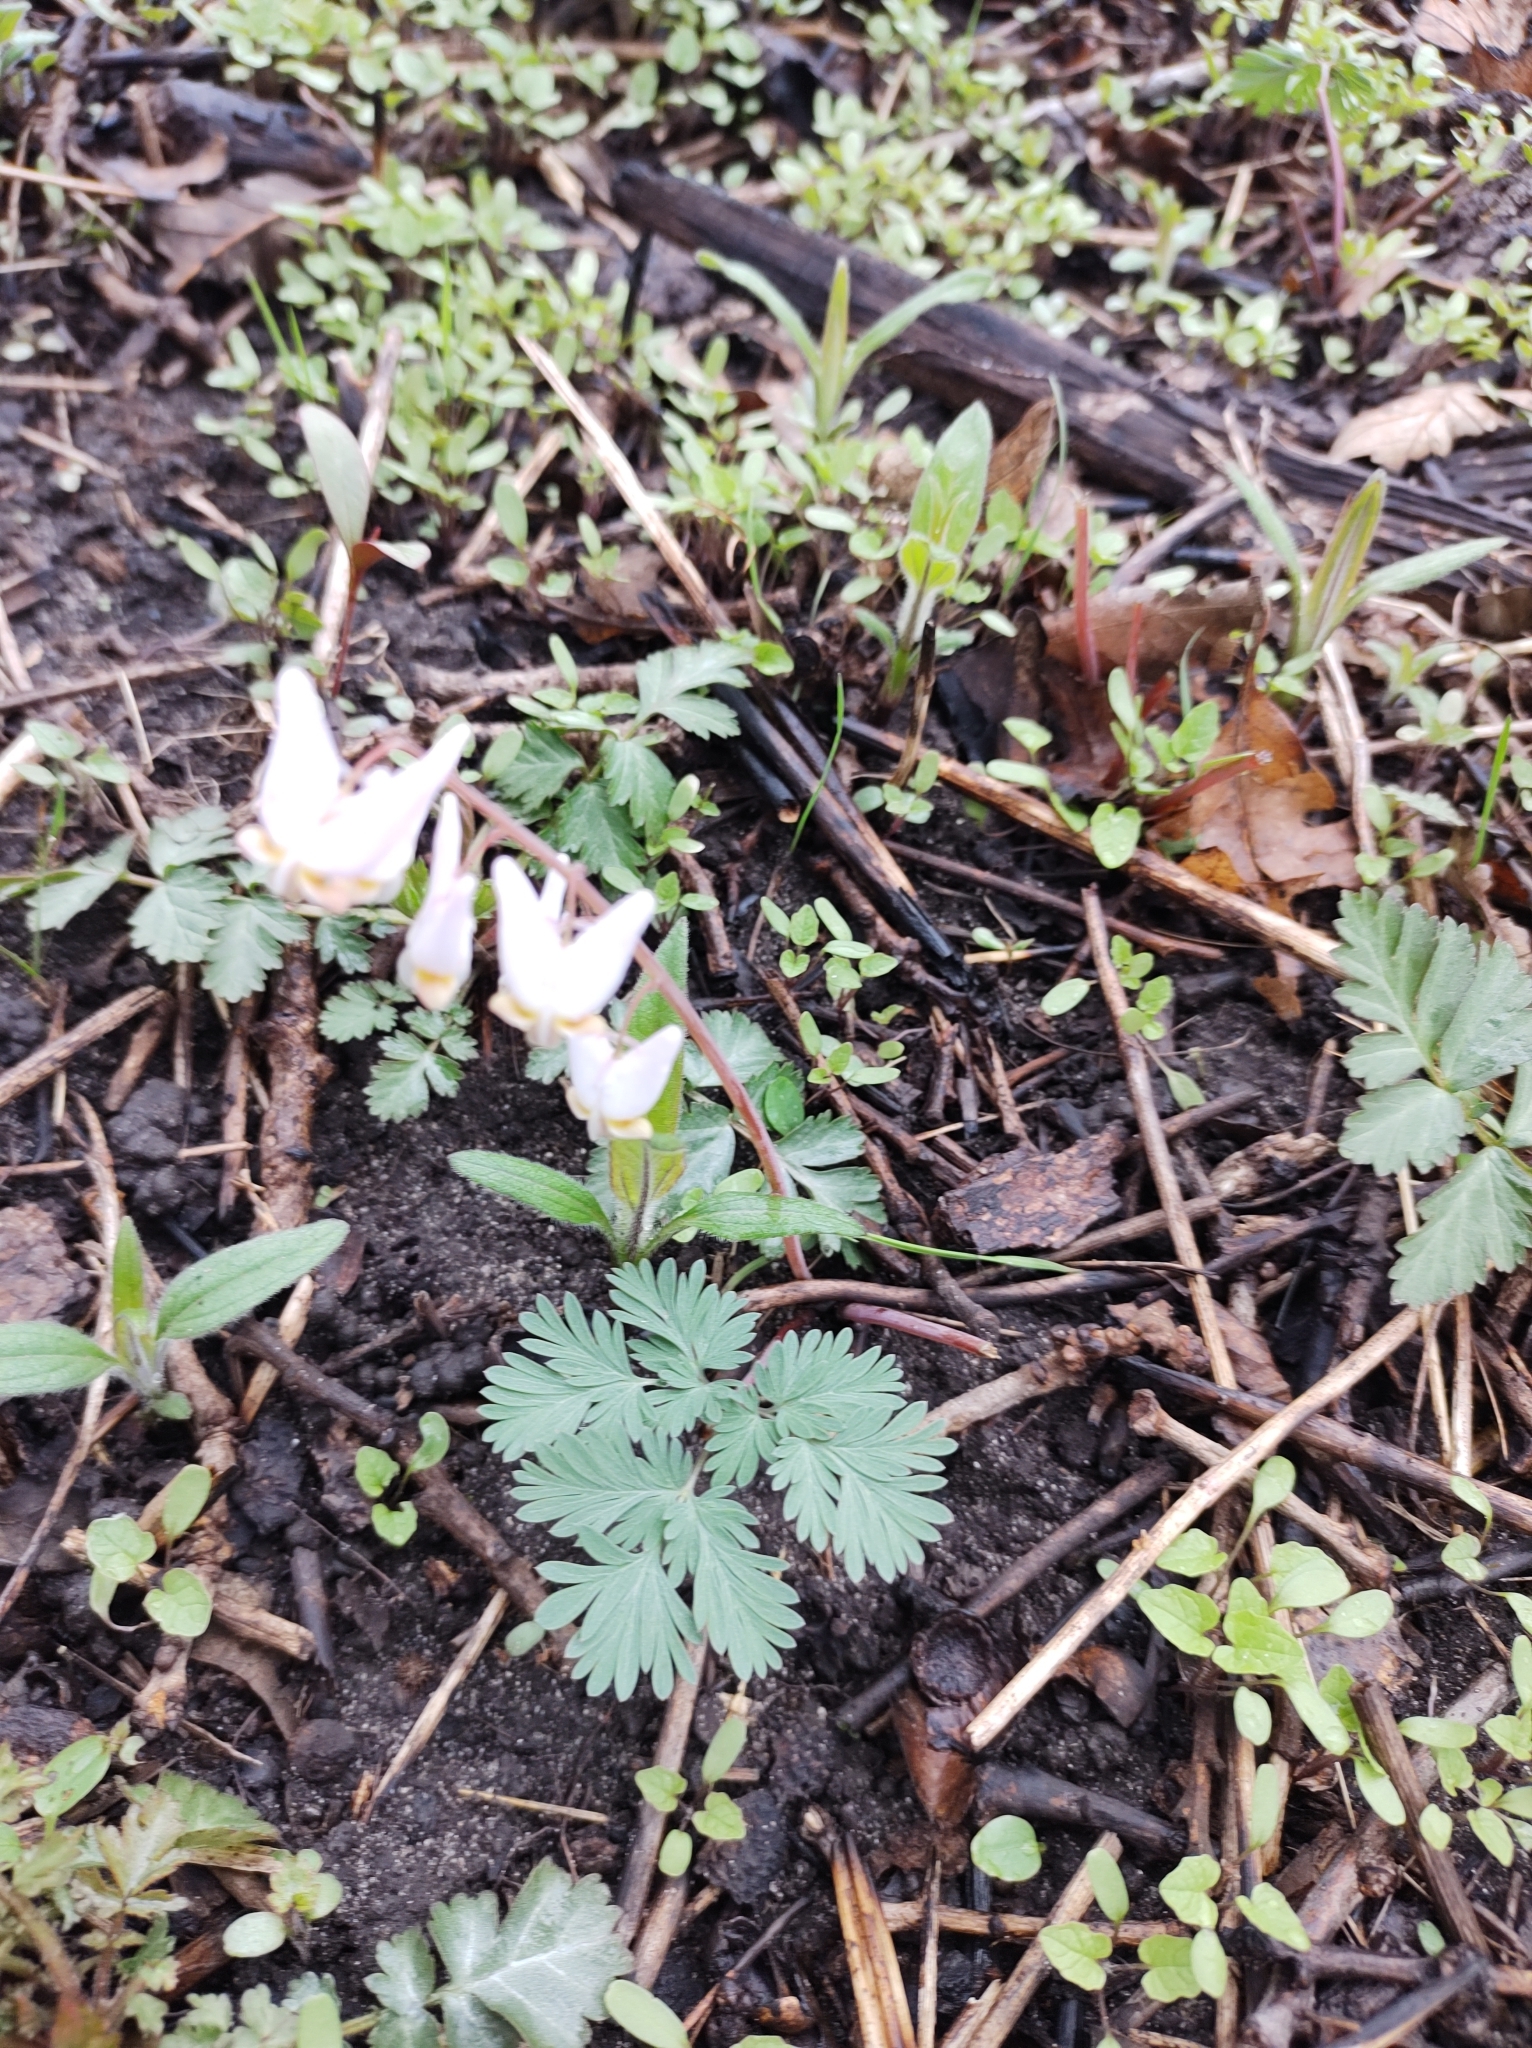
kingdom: Plantae
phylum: Tracheophyta
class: Magnoliopsida
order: Ranunculales
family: Papaveraceae
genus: Dicentra
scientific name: Dicentra cucullaria
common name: Dutchman's breeches
